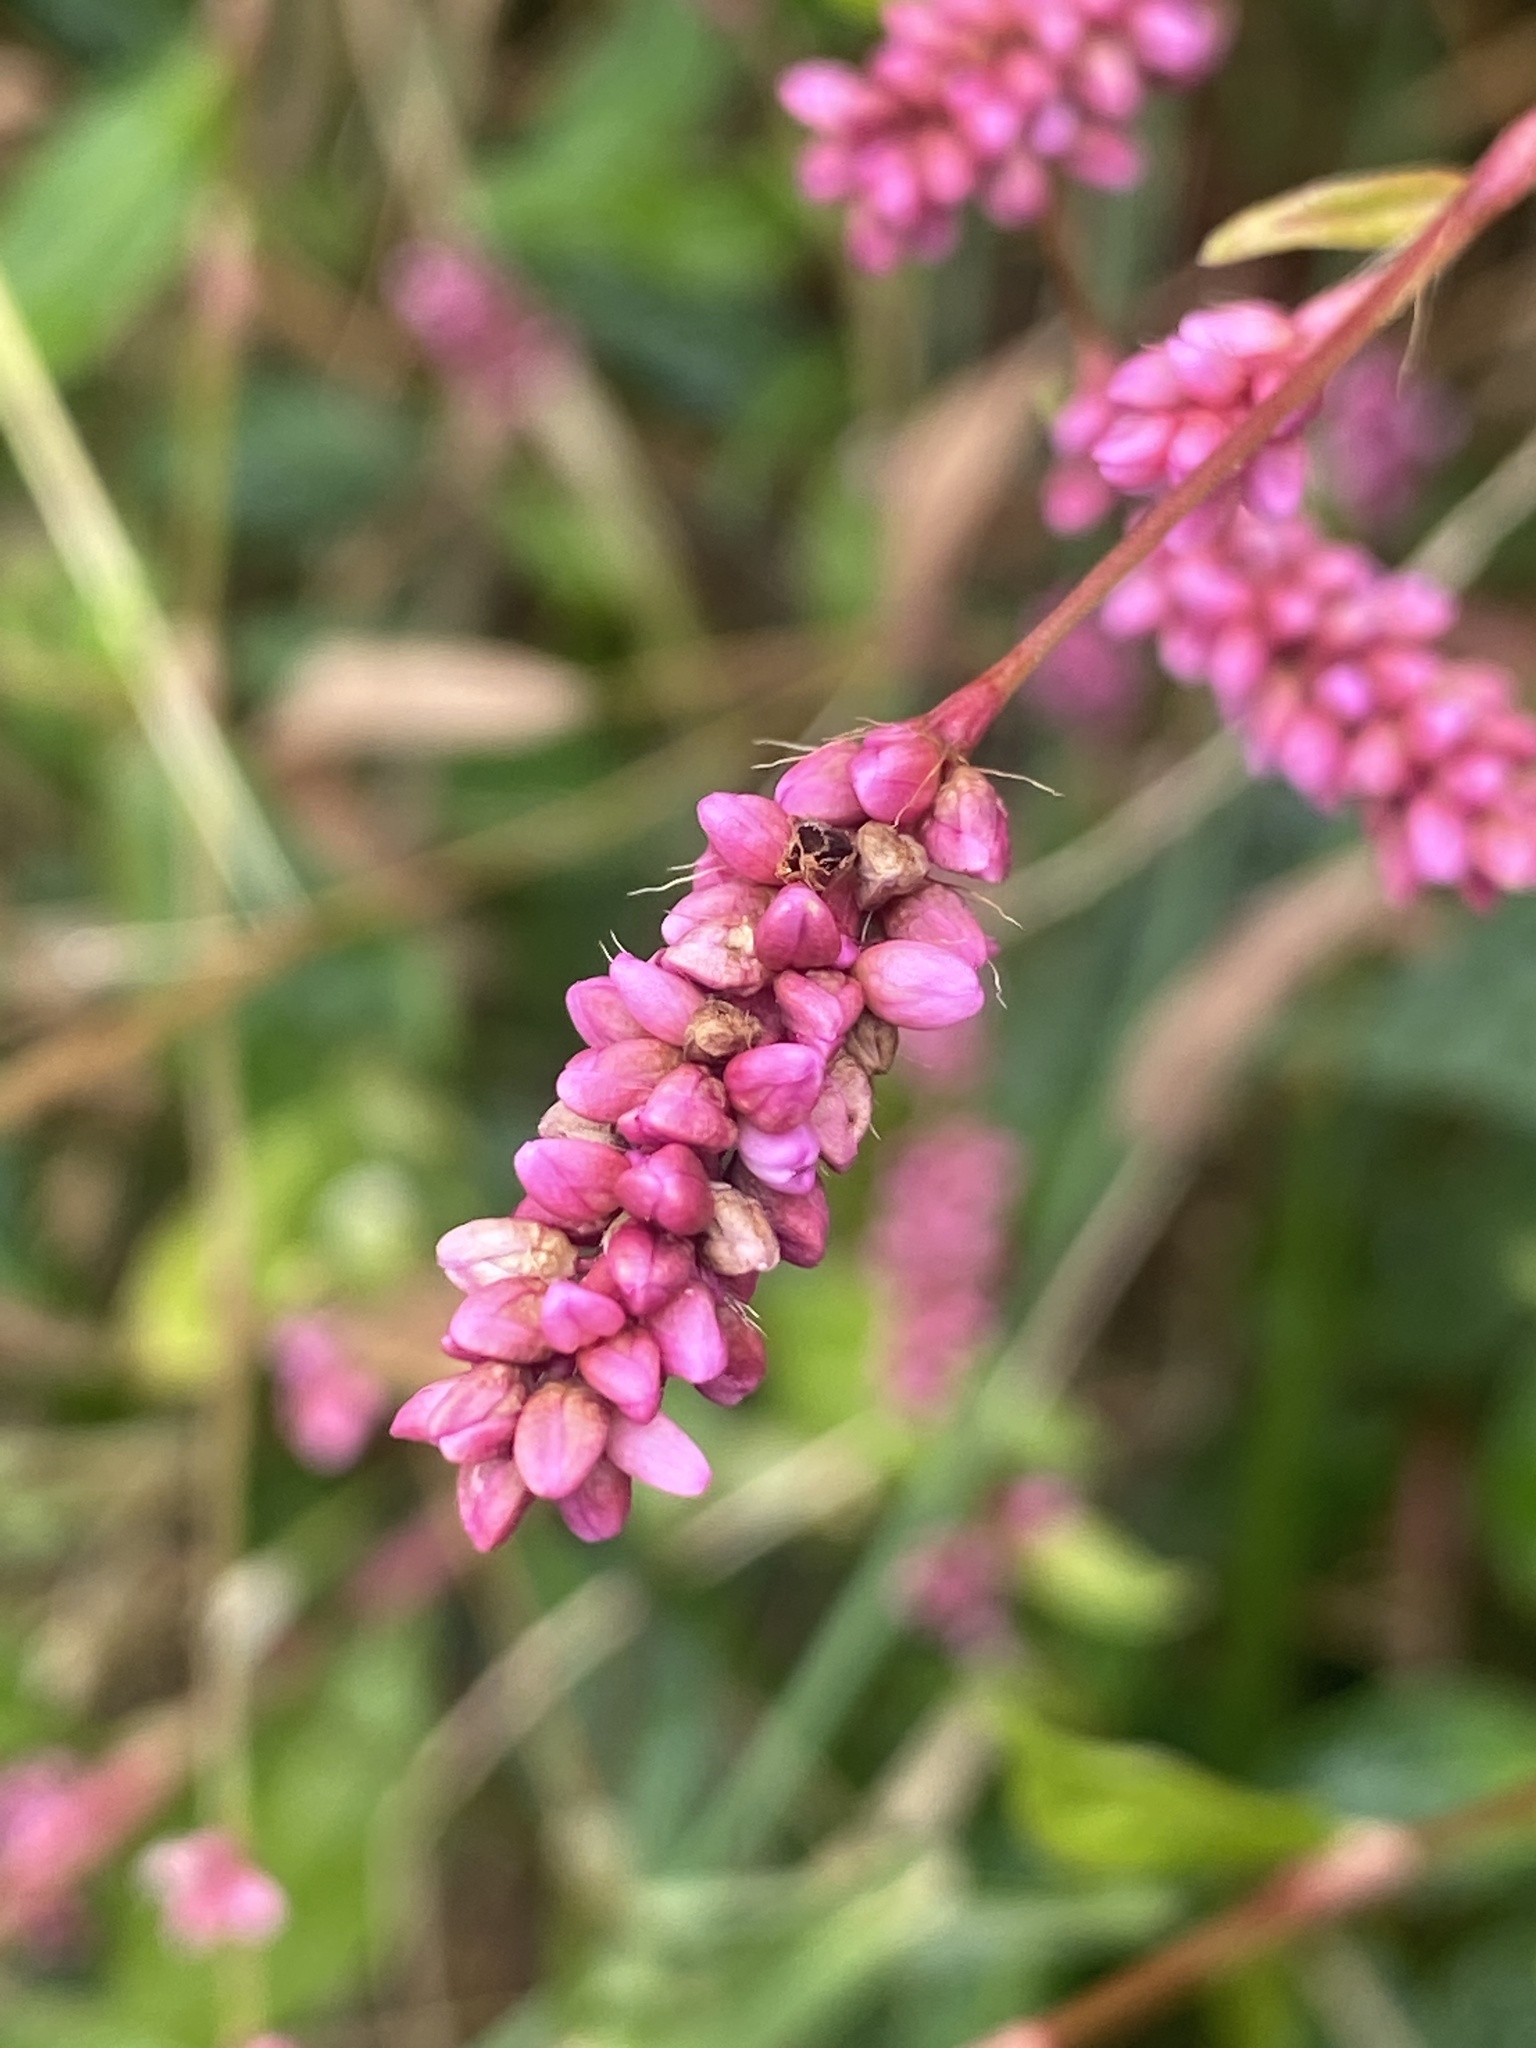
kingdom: Plantae
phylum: Tracheophyta
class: Magnoliopsida
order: Caryophyllales
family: Polygonaceae
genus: Persicaria
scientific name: Persicaria longiseta
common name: Bristly lady's-thumb
